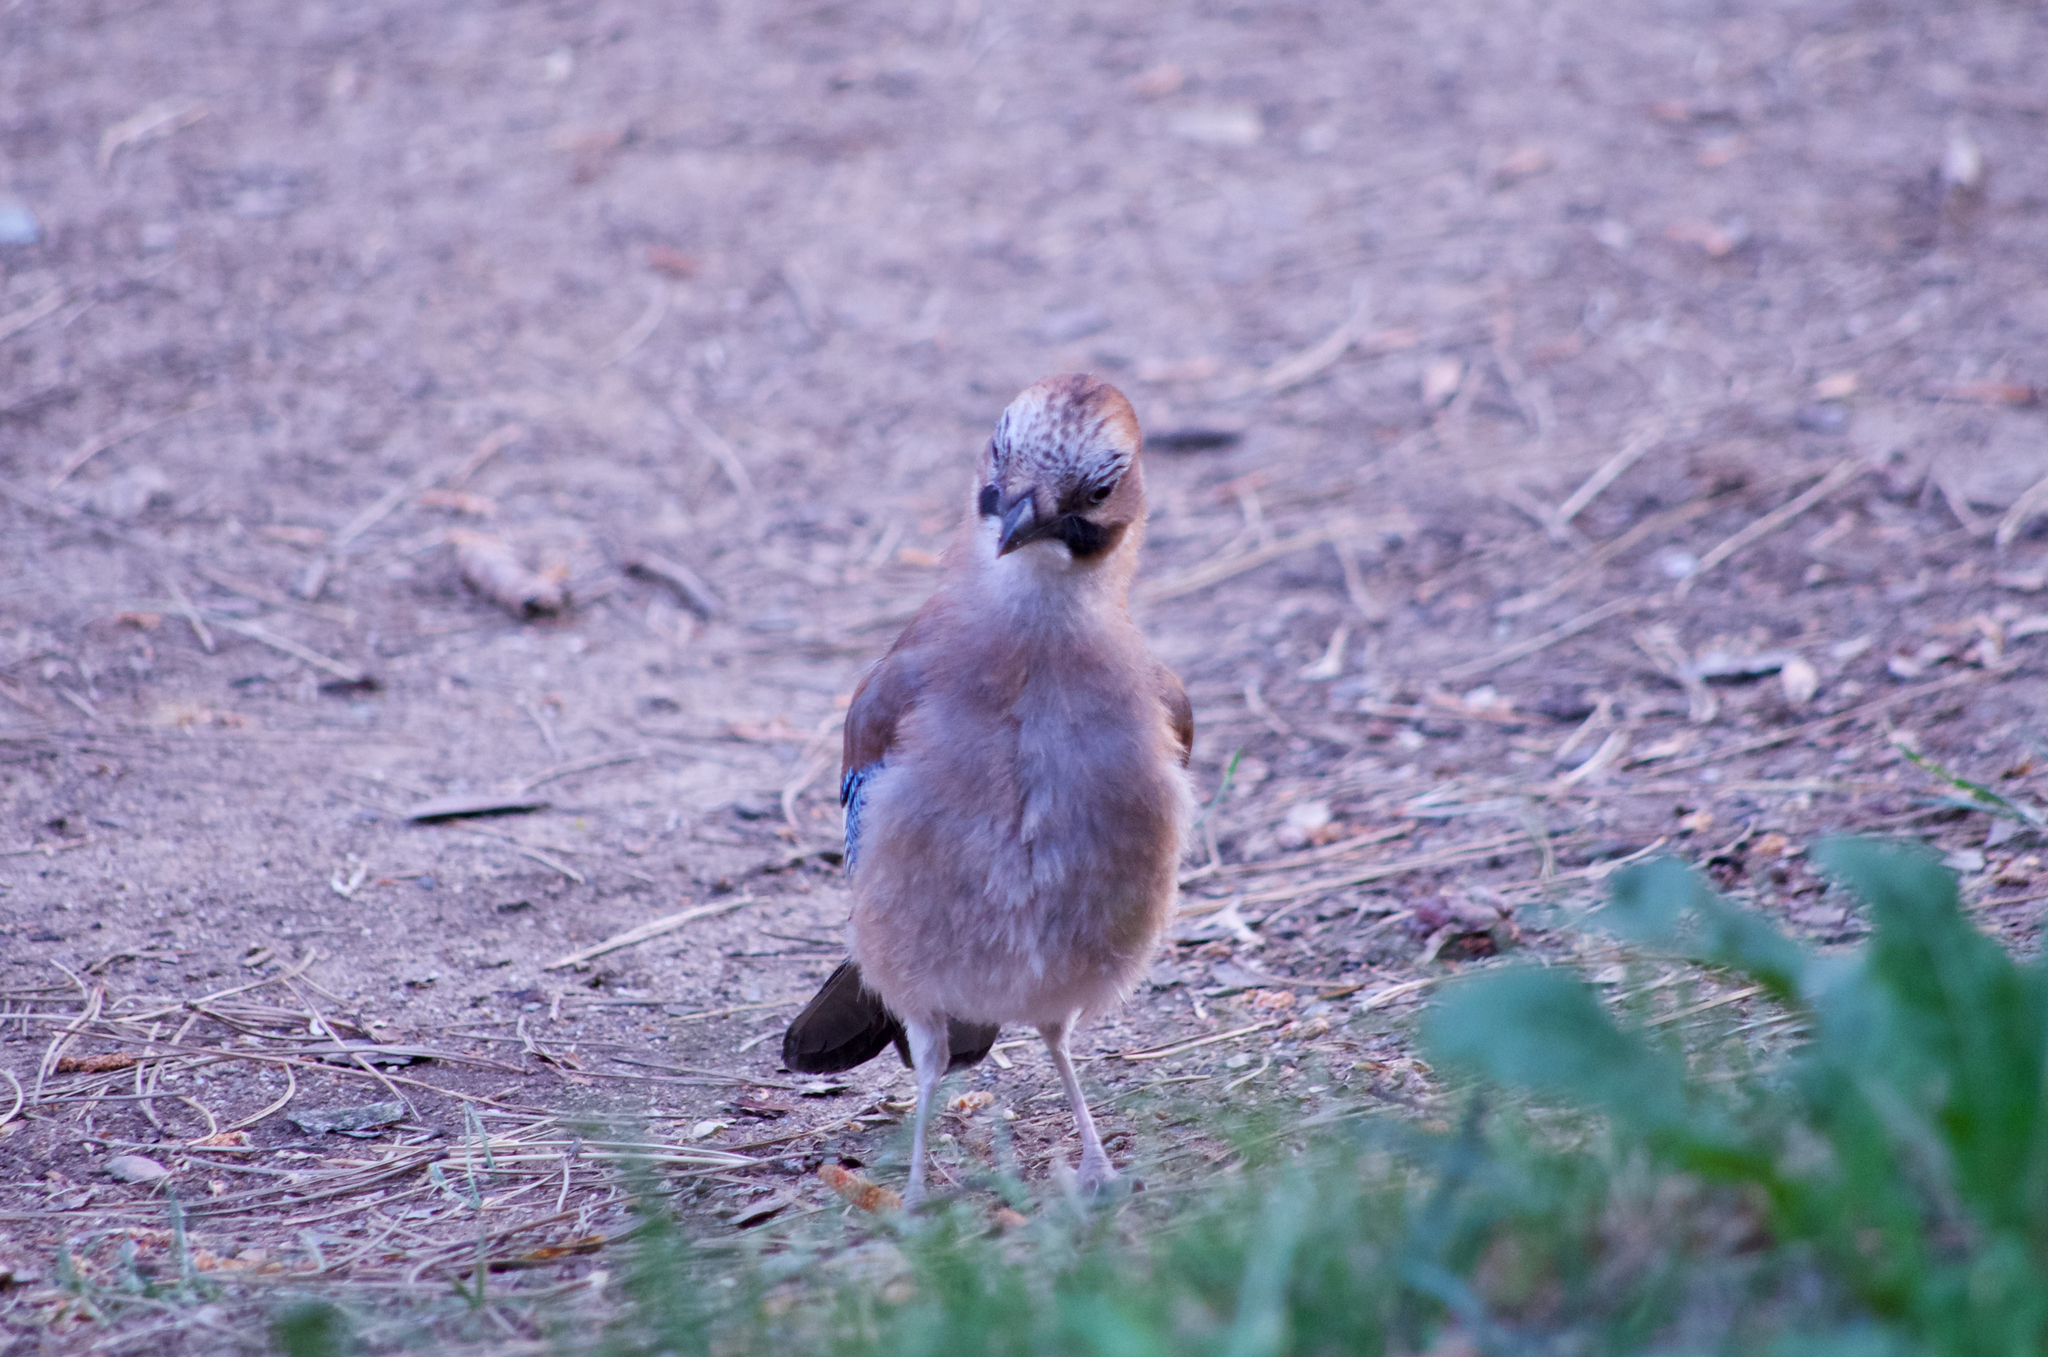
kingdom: Animalia
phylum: Chordata
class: Aves
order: Passeriformes
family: Corvidae
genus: Garrulus
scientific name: Garrulus glandarius
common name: Eurasian jay
